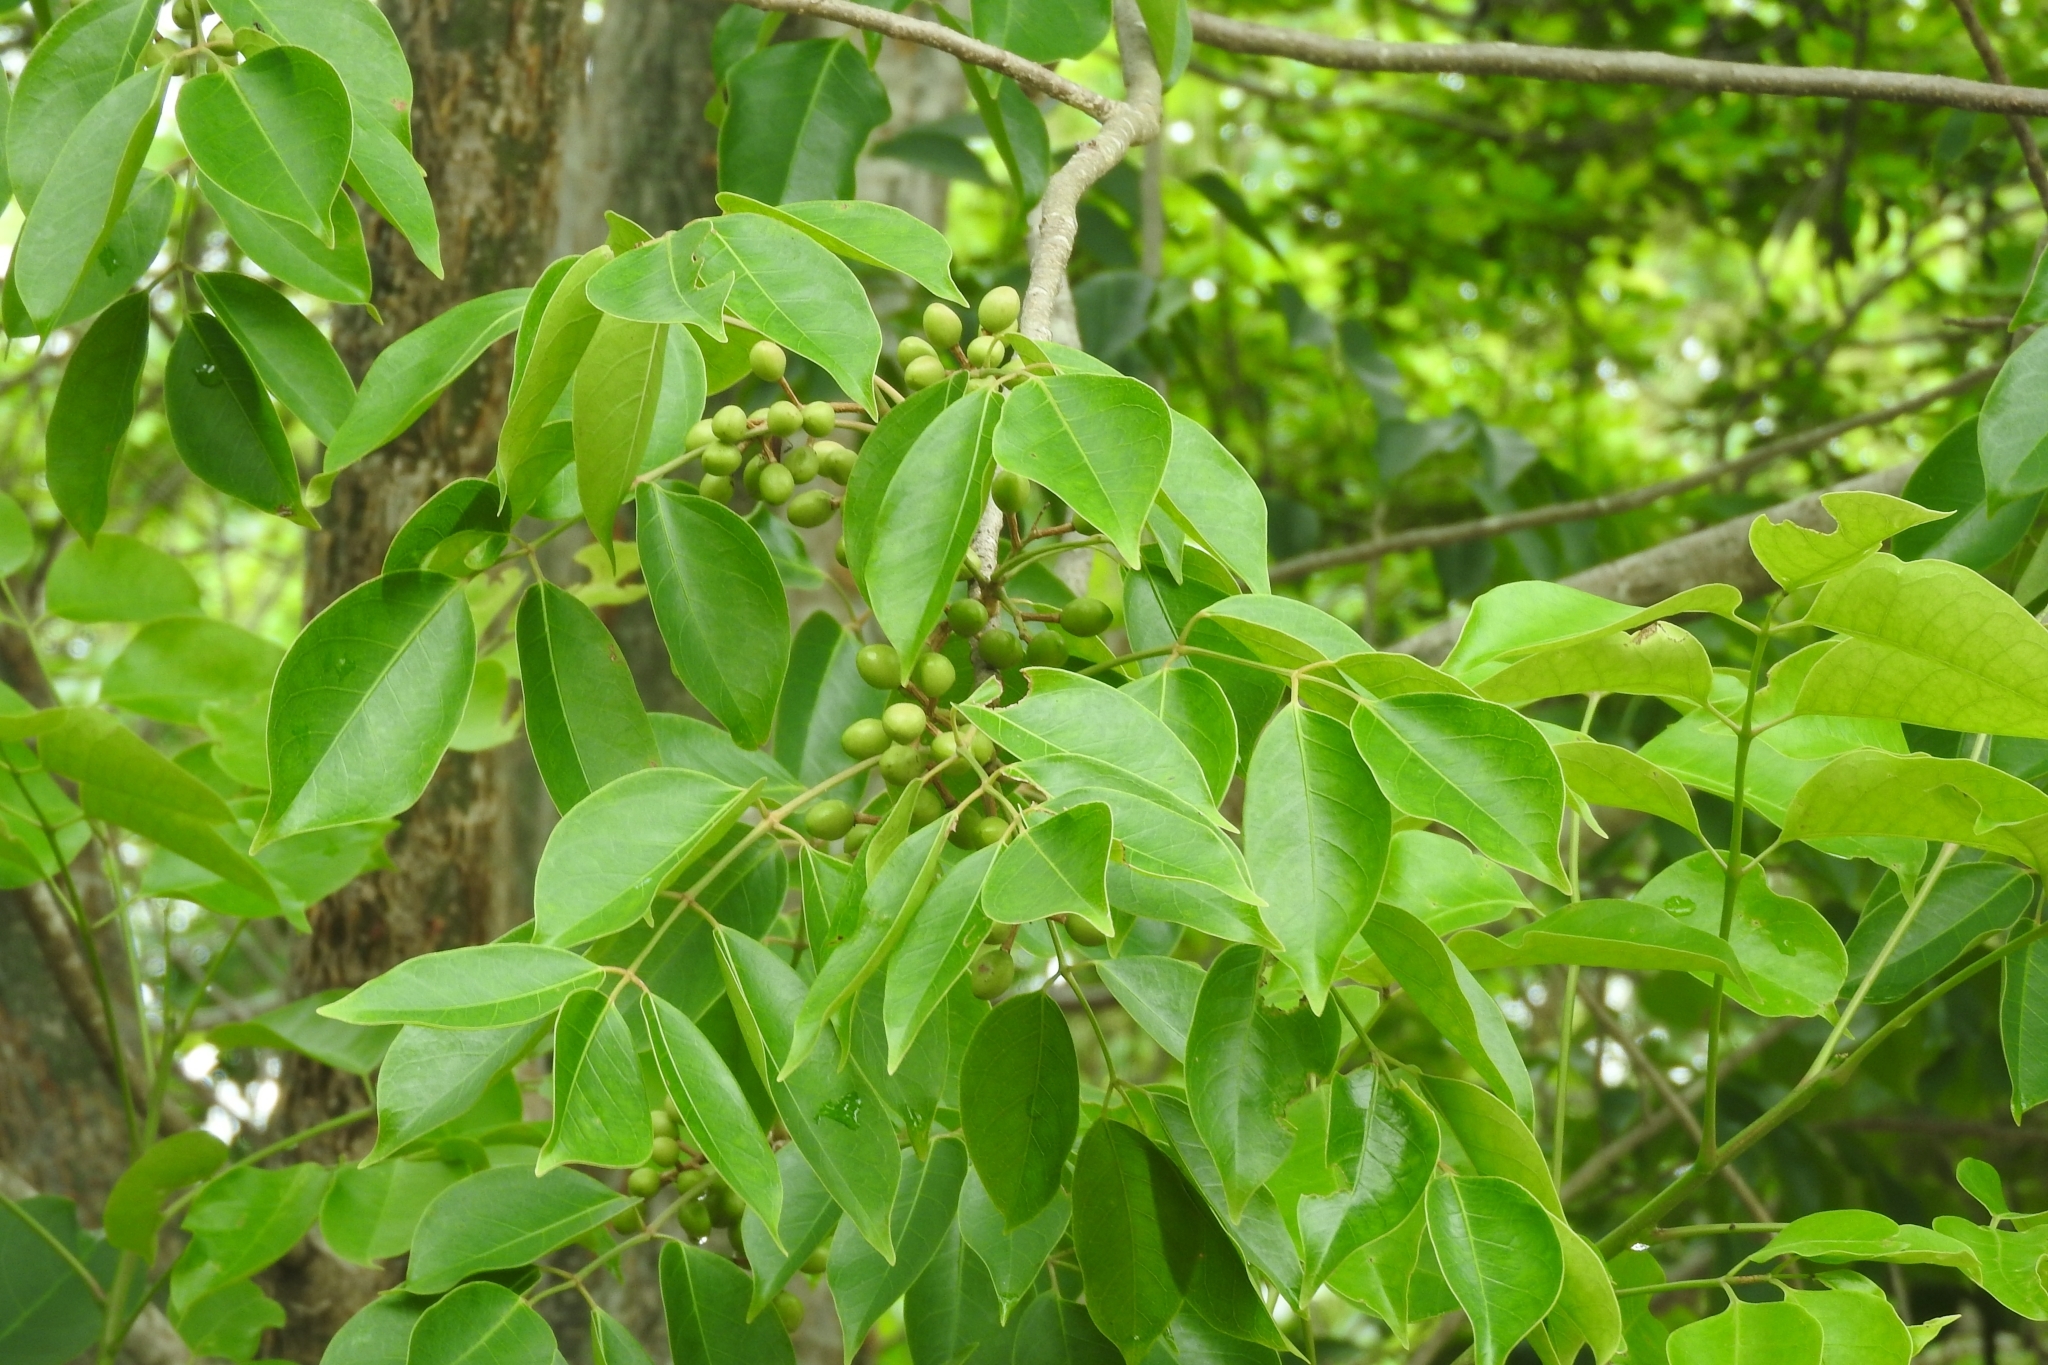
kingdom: Plantae
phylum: Tracheophyta
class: Magnoliopsida
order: Sapindales
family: Burseraceae
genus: Bursera
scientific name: Bursera simaruba
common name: Turpentine tree
